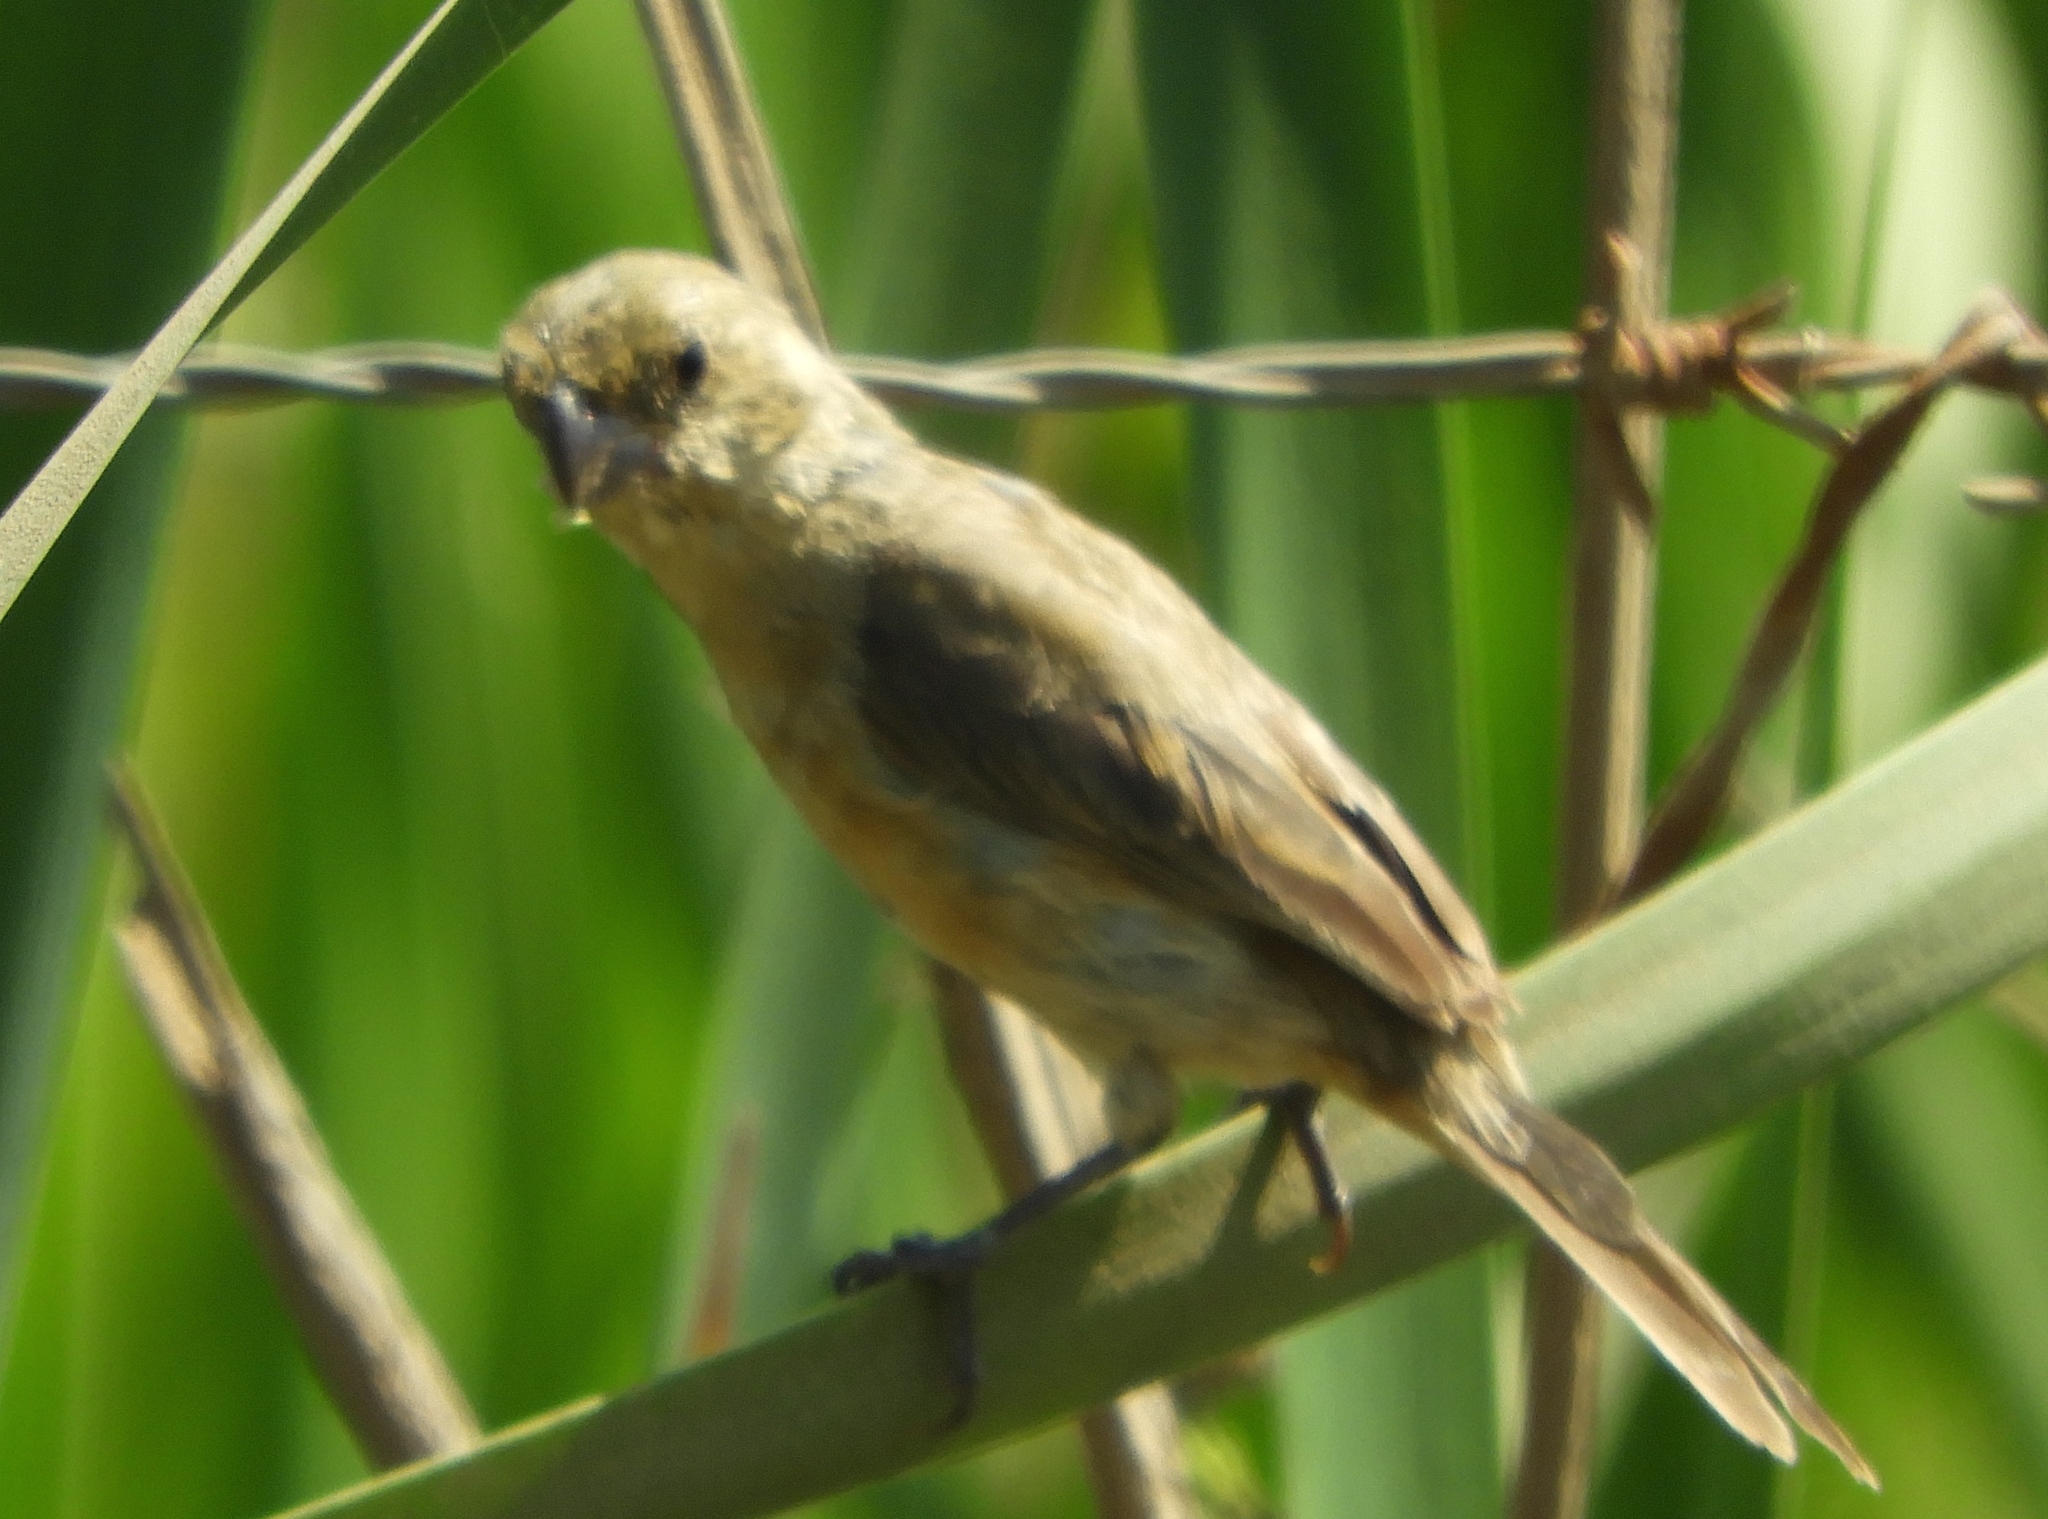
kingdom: Animalia
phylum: Chordata
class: Aves
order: Passeriformes
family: Thraupidae
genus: Sporophila
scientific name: Sporophila torqueola
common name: White-collared seedeater
